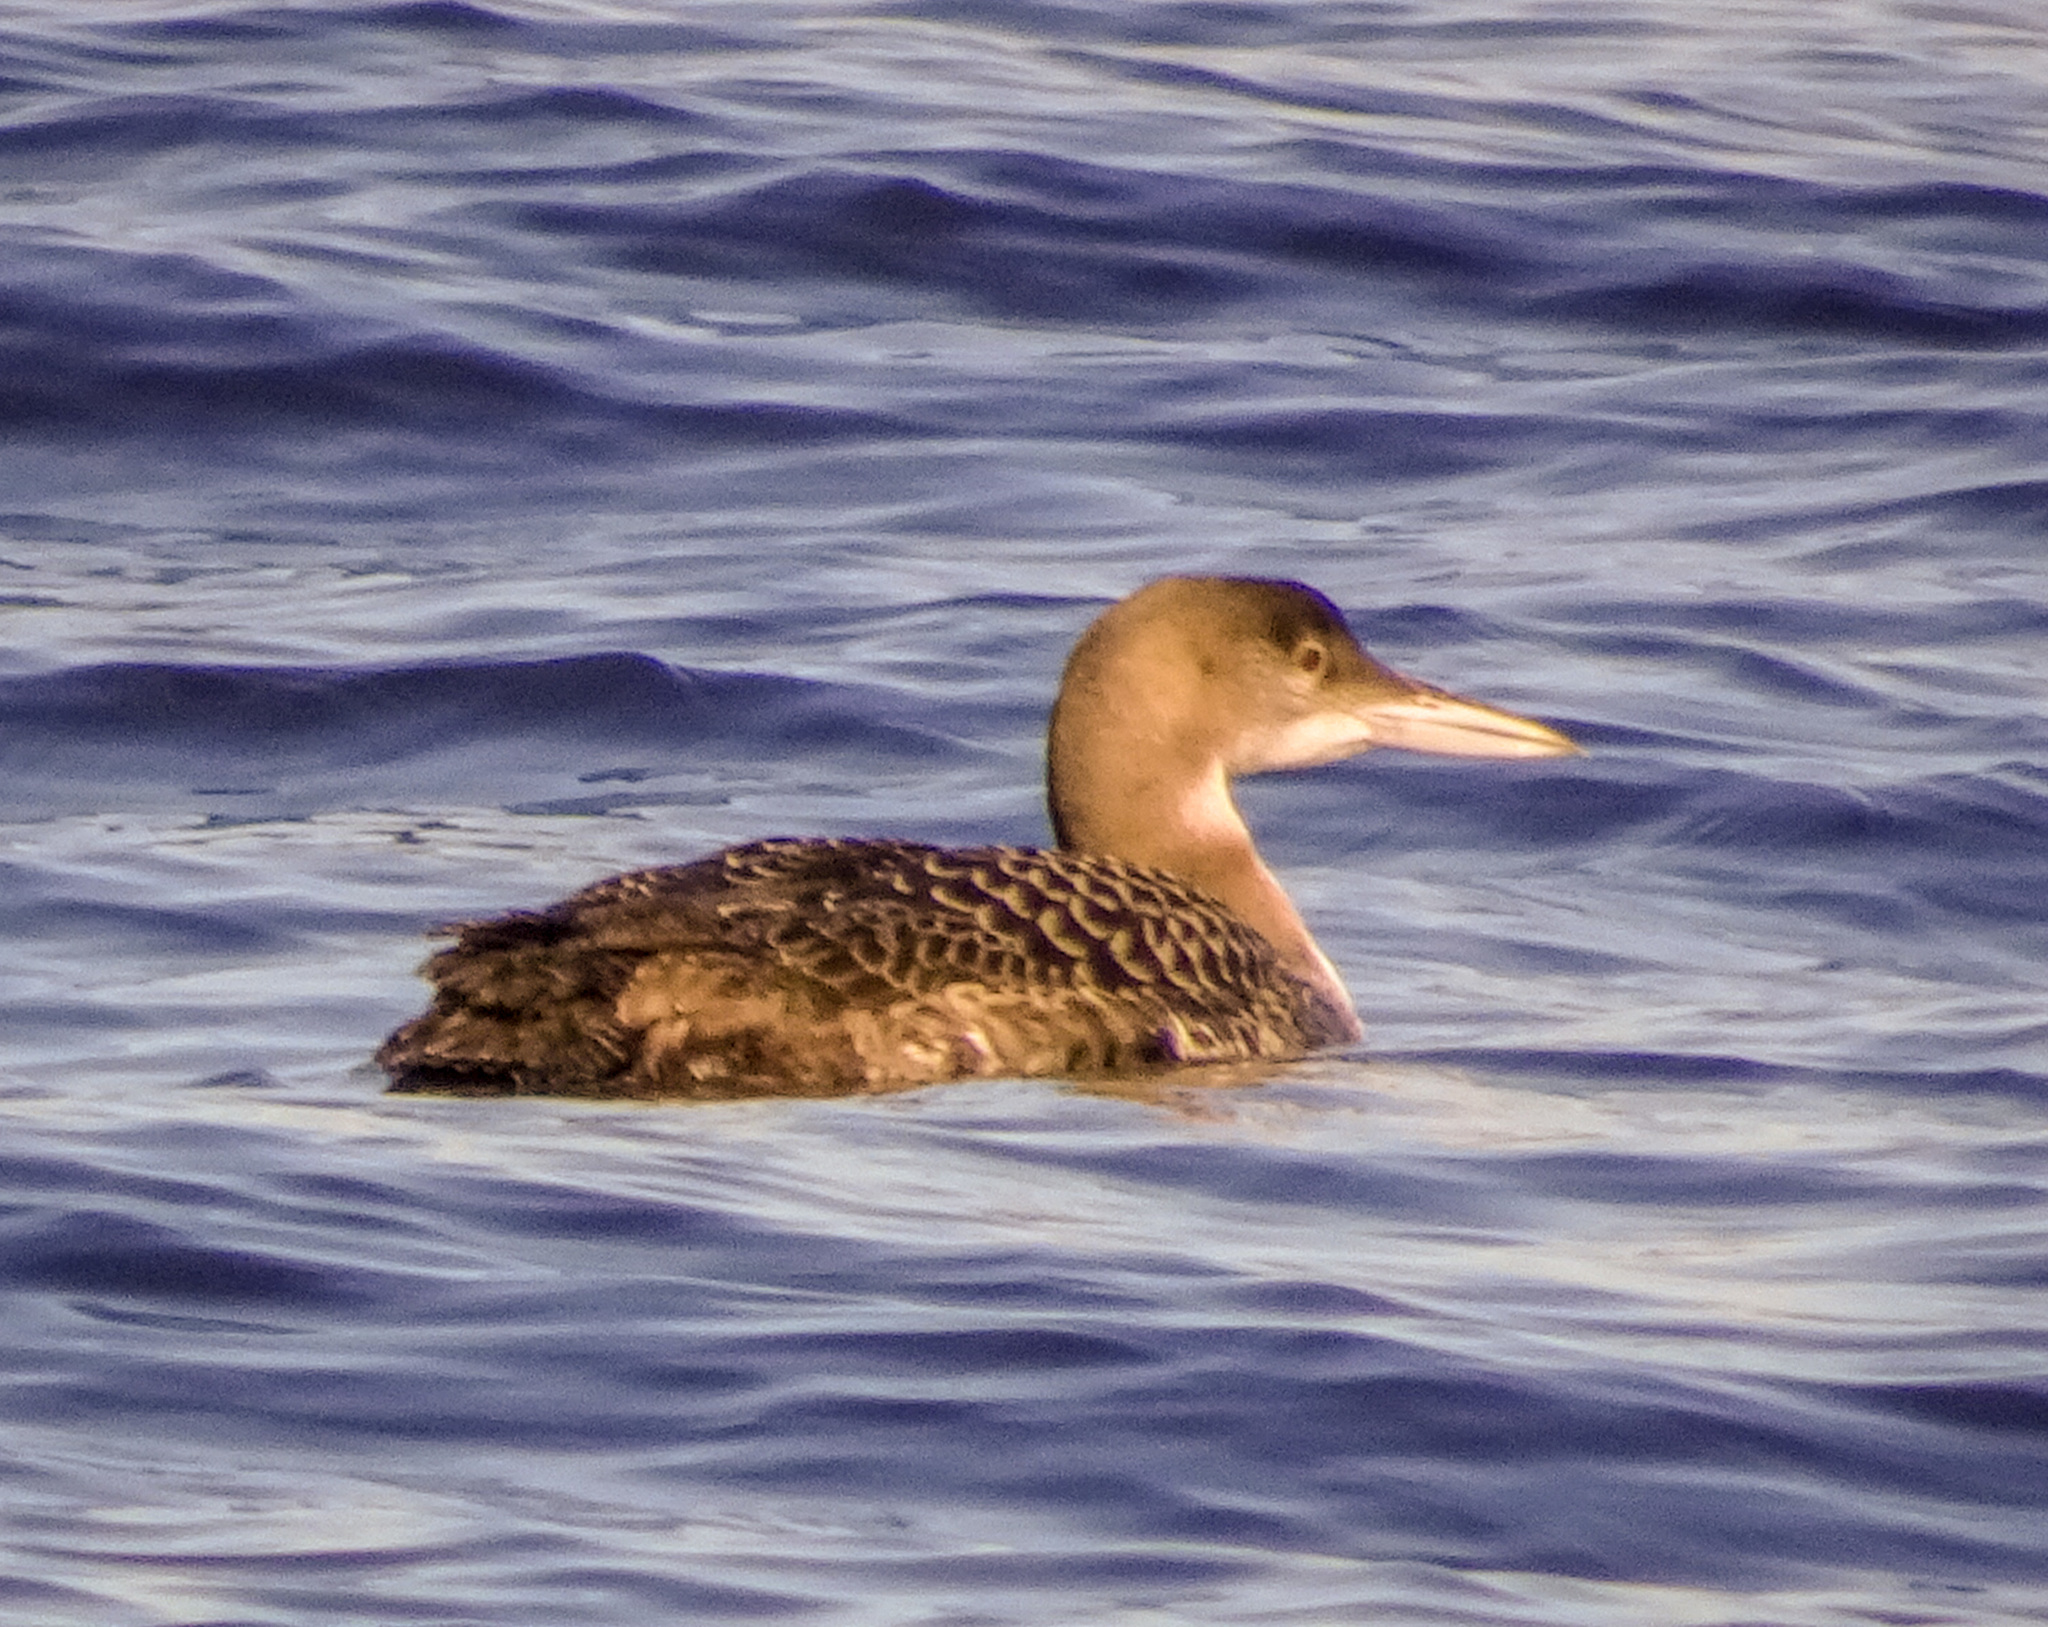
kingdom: Animalia
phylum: Chordata
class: Aves
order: Gaviiformes
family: Gaviidae
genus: Gavia
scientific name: Gavia immer
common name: Common loon
